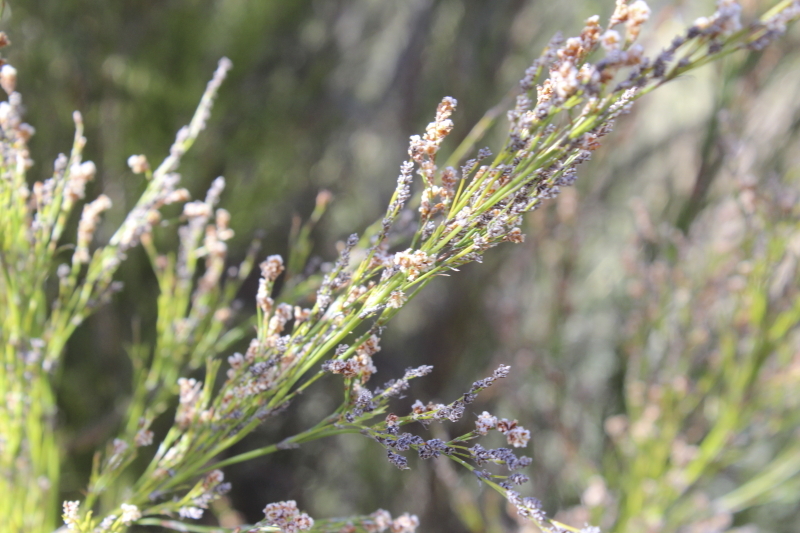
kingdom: Plantae
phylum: Tracheophyta
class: Liliopsida
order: Poales
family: Restionaceae
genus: Restio
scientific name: Restio paniculatus
